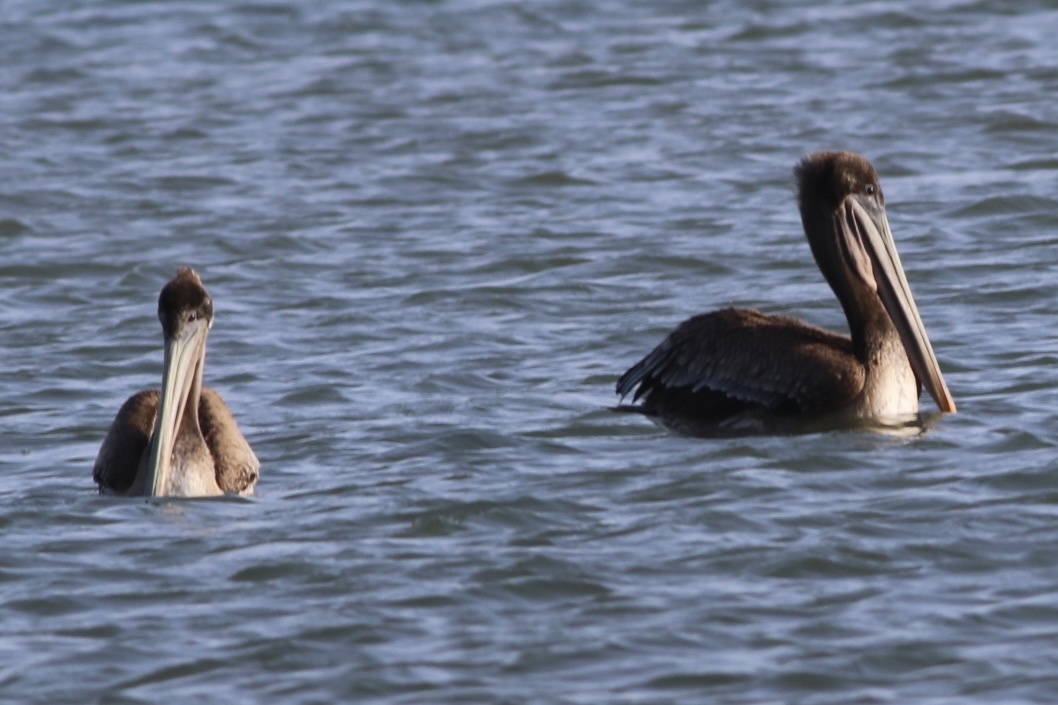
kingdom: Animalia
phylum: Chordata
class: Aves
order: Pelecaniformes
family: Pelecanidae
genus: Pelecanus
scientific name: Pelecanus occidentalis
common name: Brown pelican
